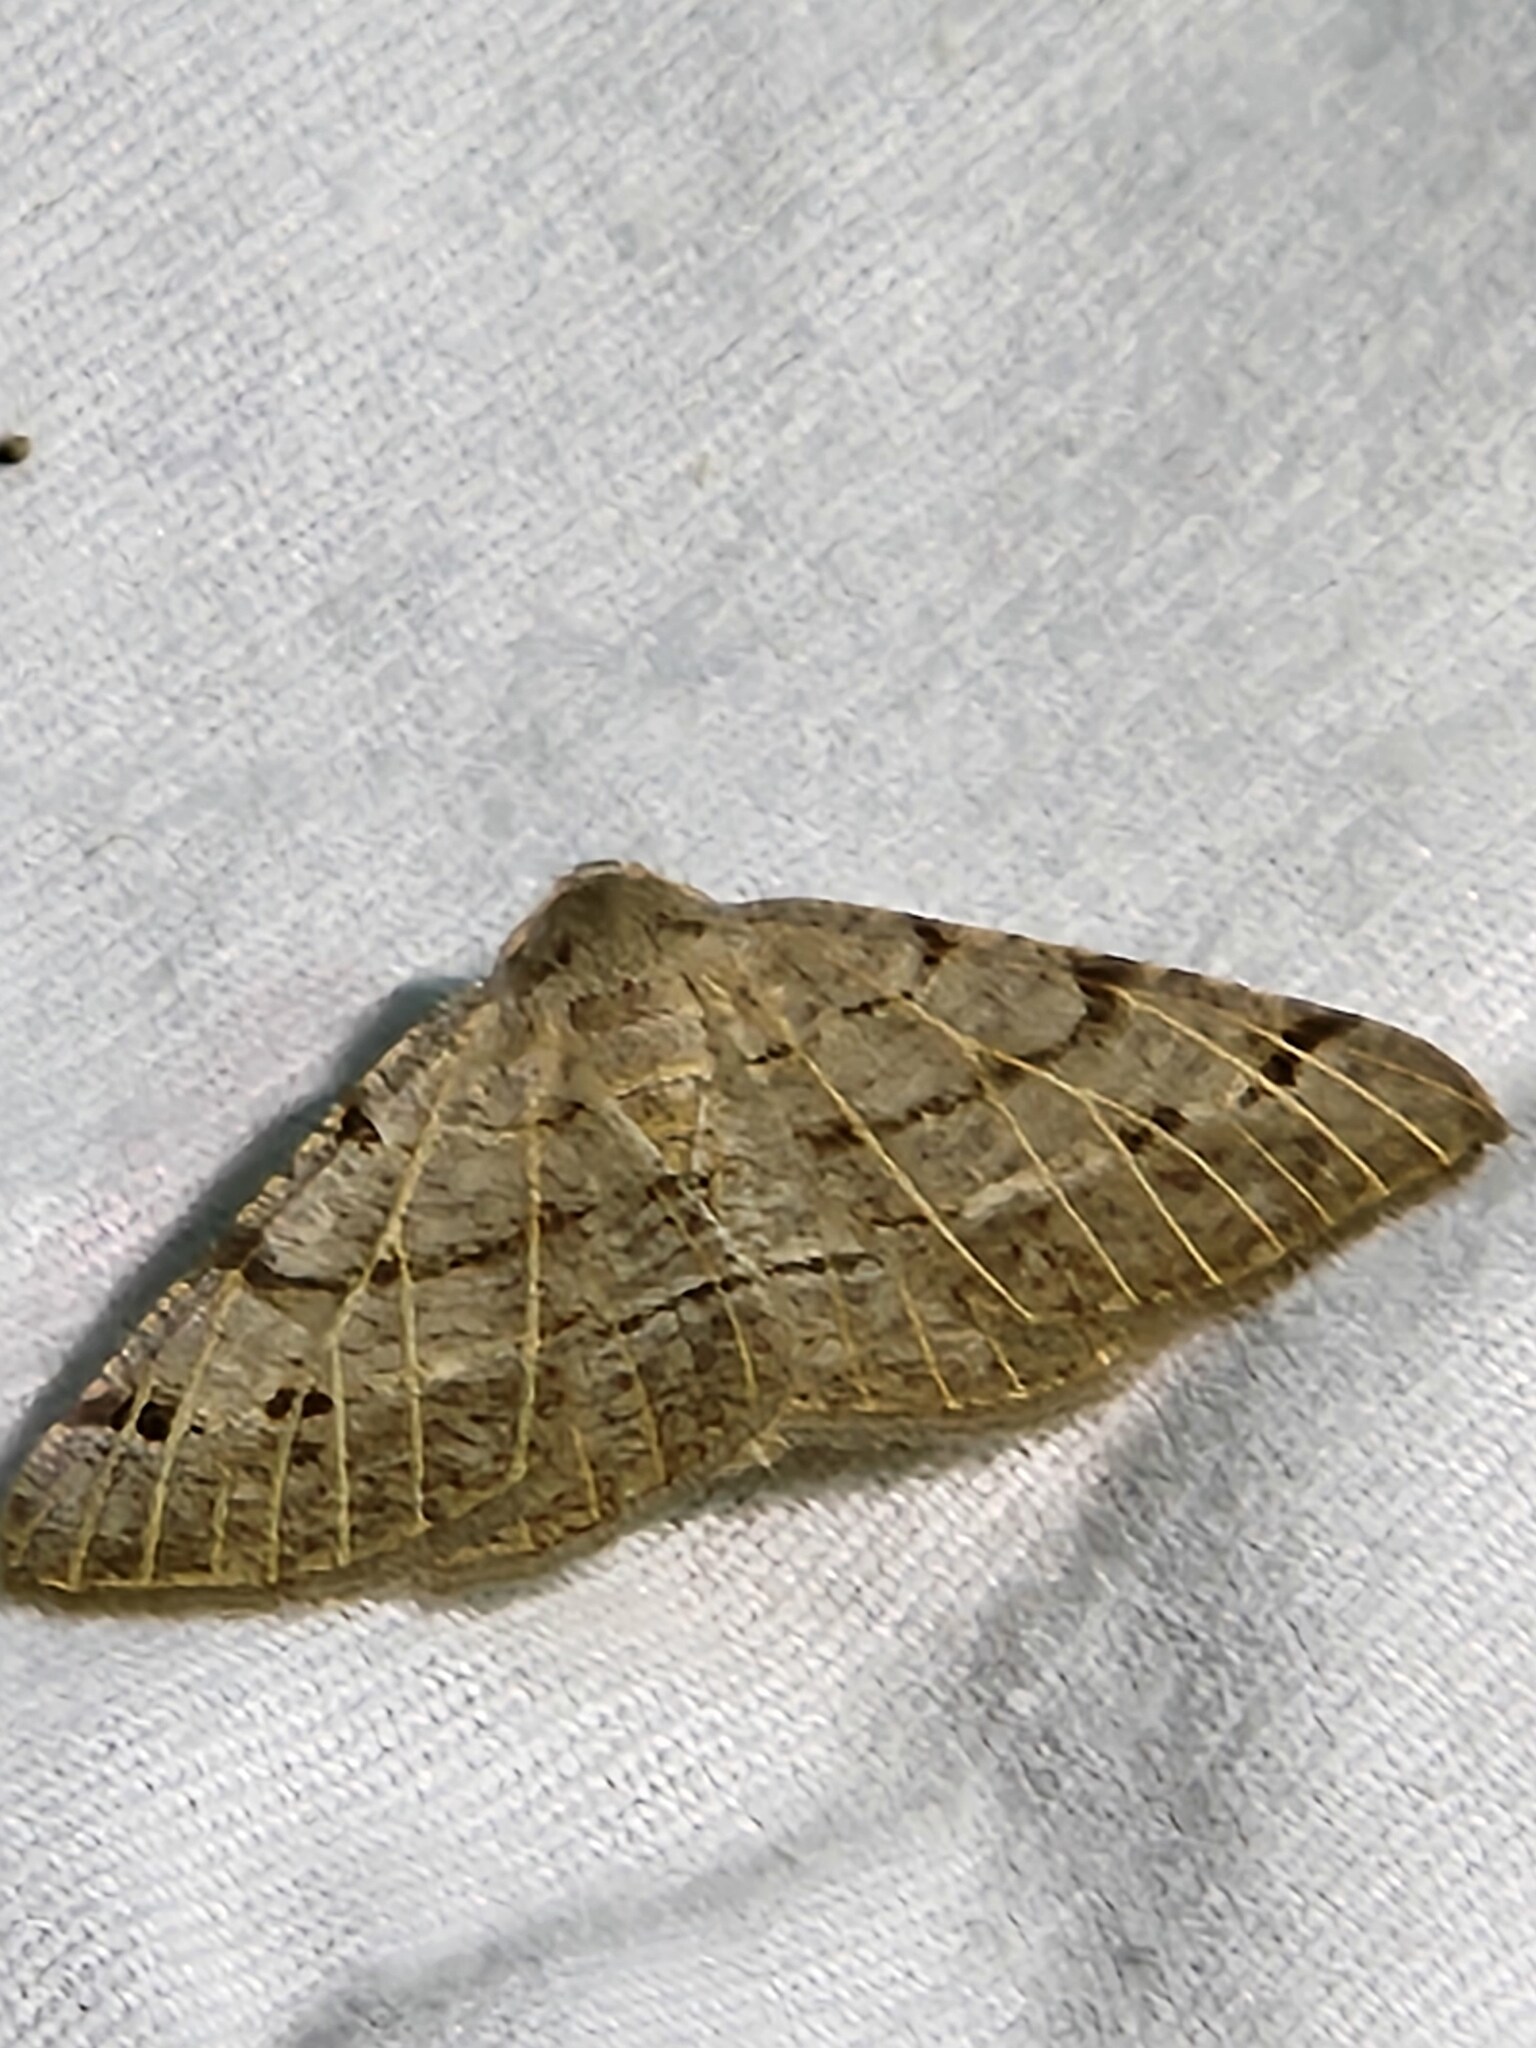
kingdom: Animalia
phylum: Arthropoda
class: Insecta
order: Lepidoptera
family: Geometridae
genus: Isturgia
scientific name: Isturgia dislocaria
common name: Pale-viened enconista
